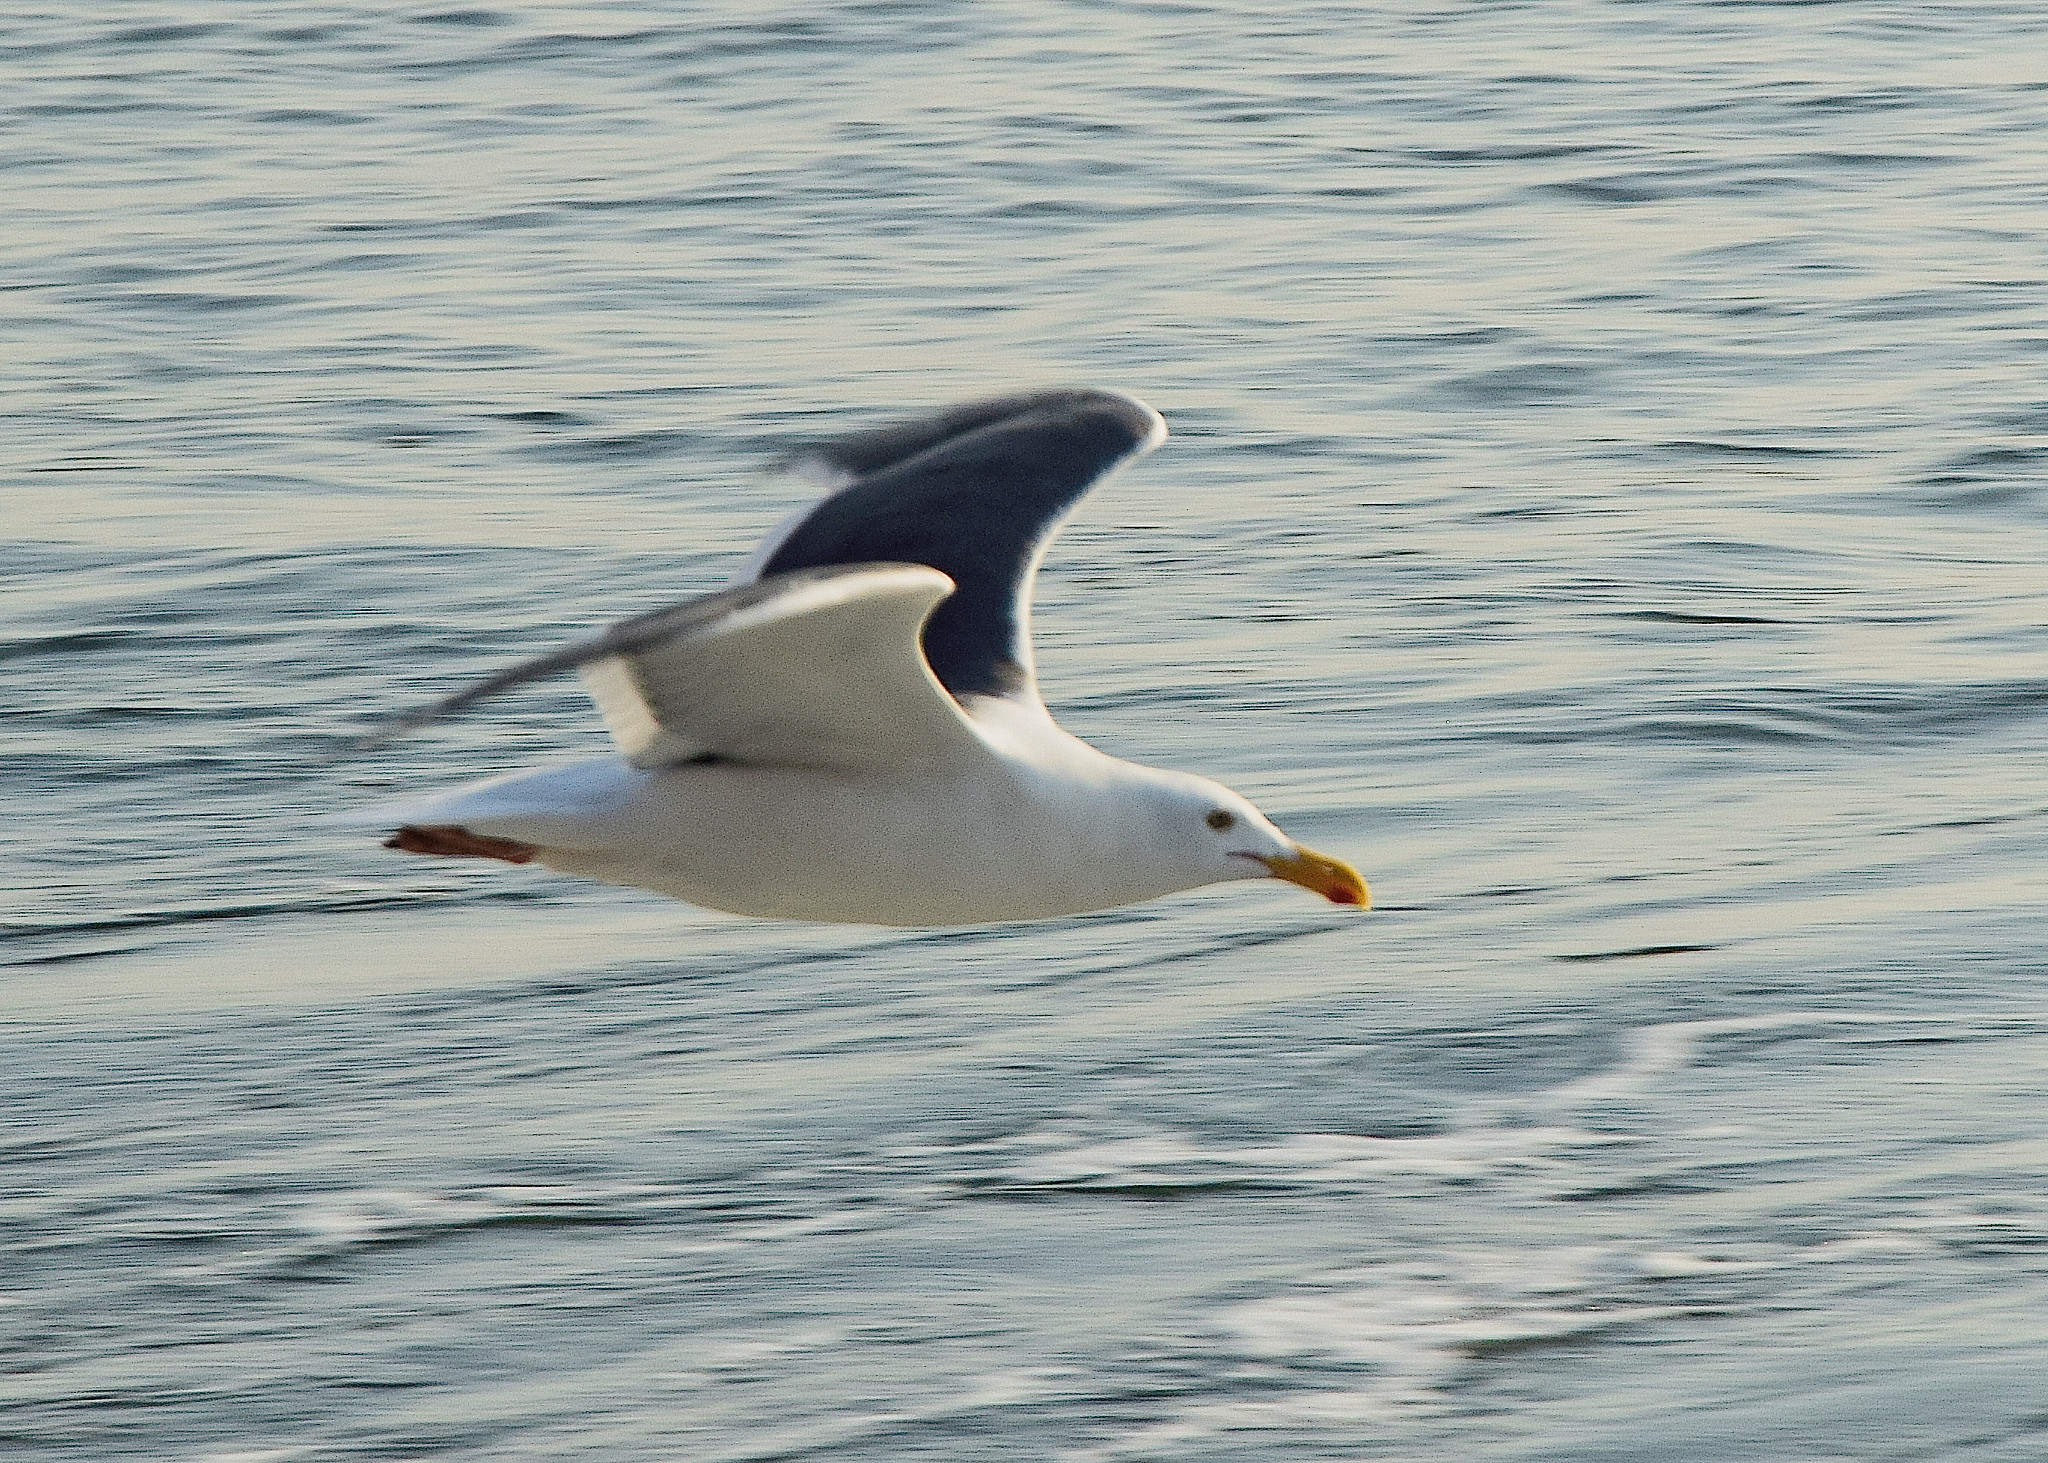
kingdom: Animalia
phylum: Chordata
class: Aves
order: Charadriiformes
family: Laridae
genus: Larus
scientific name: Larus occidentalis
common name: Western gull
